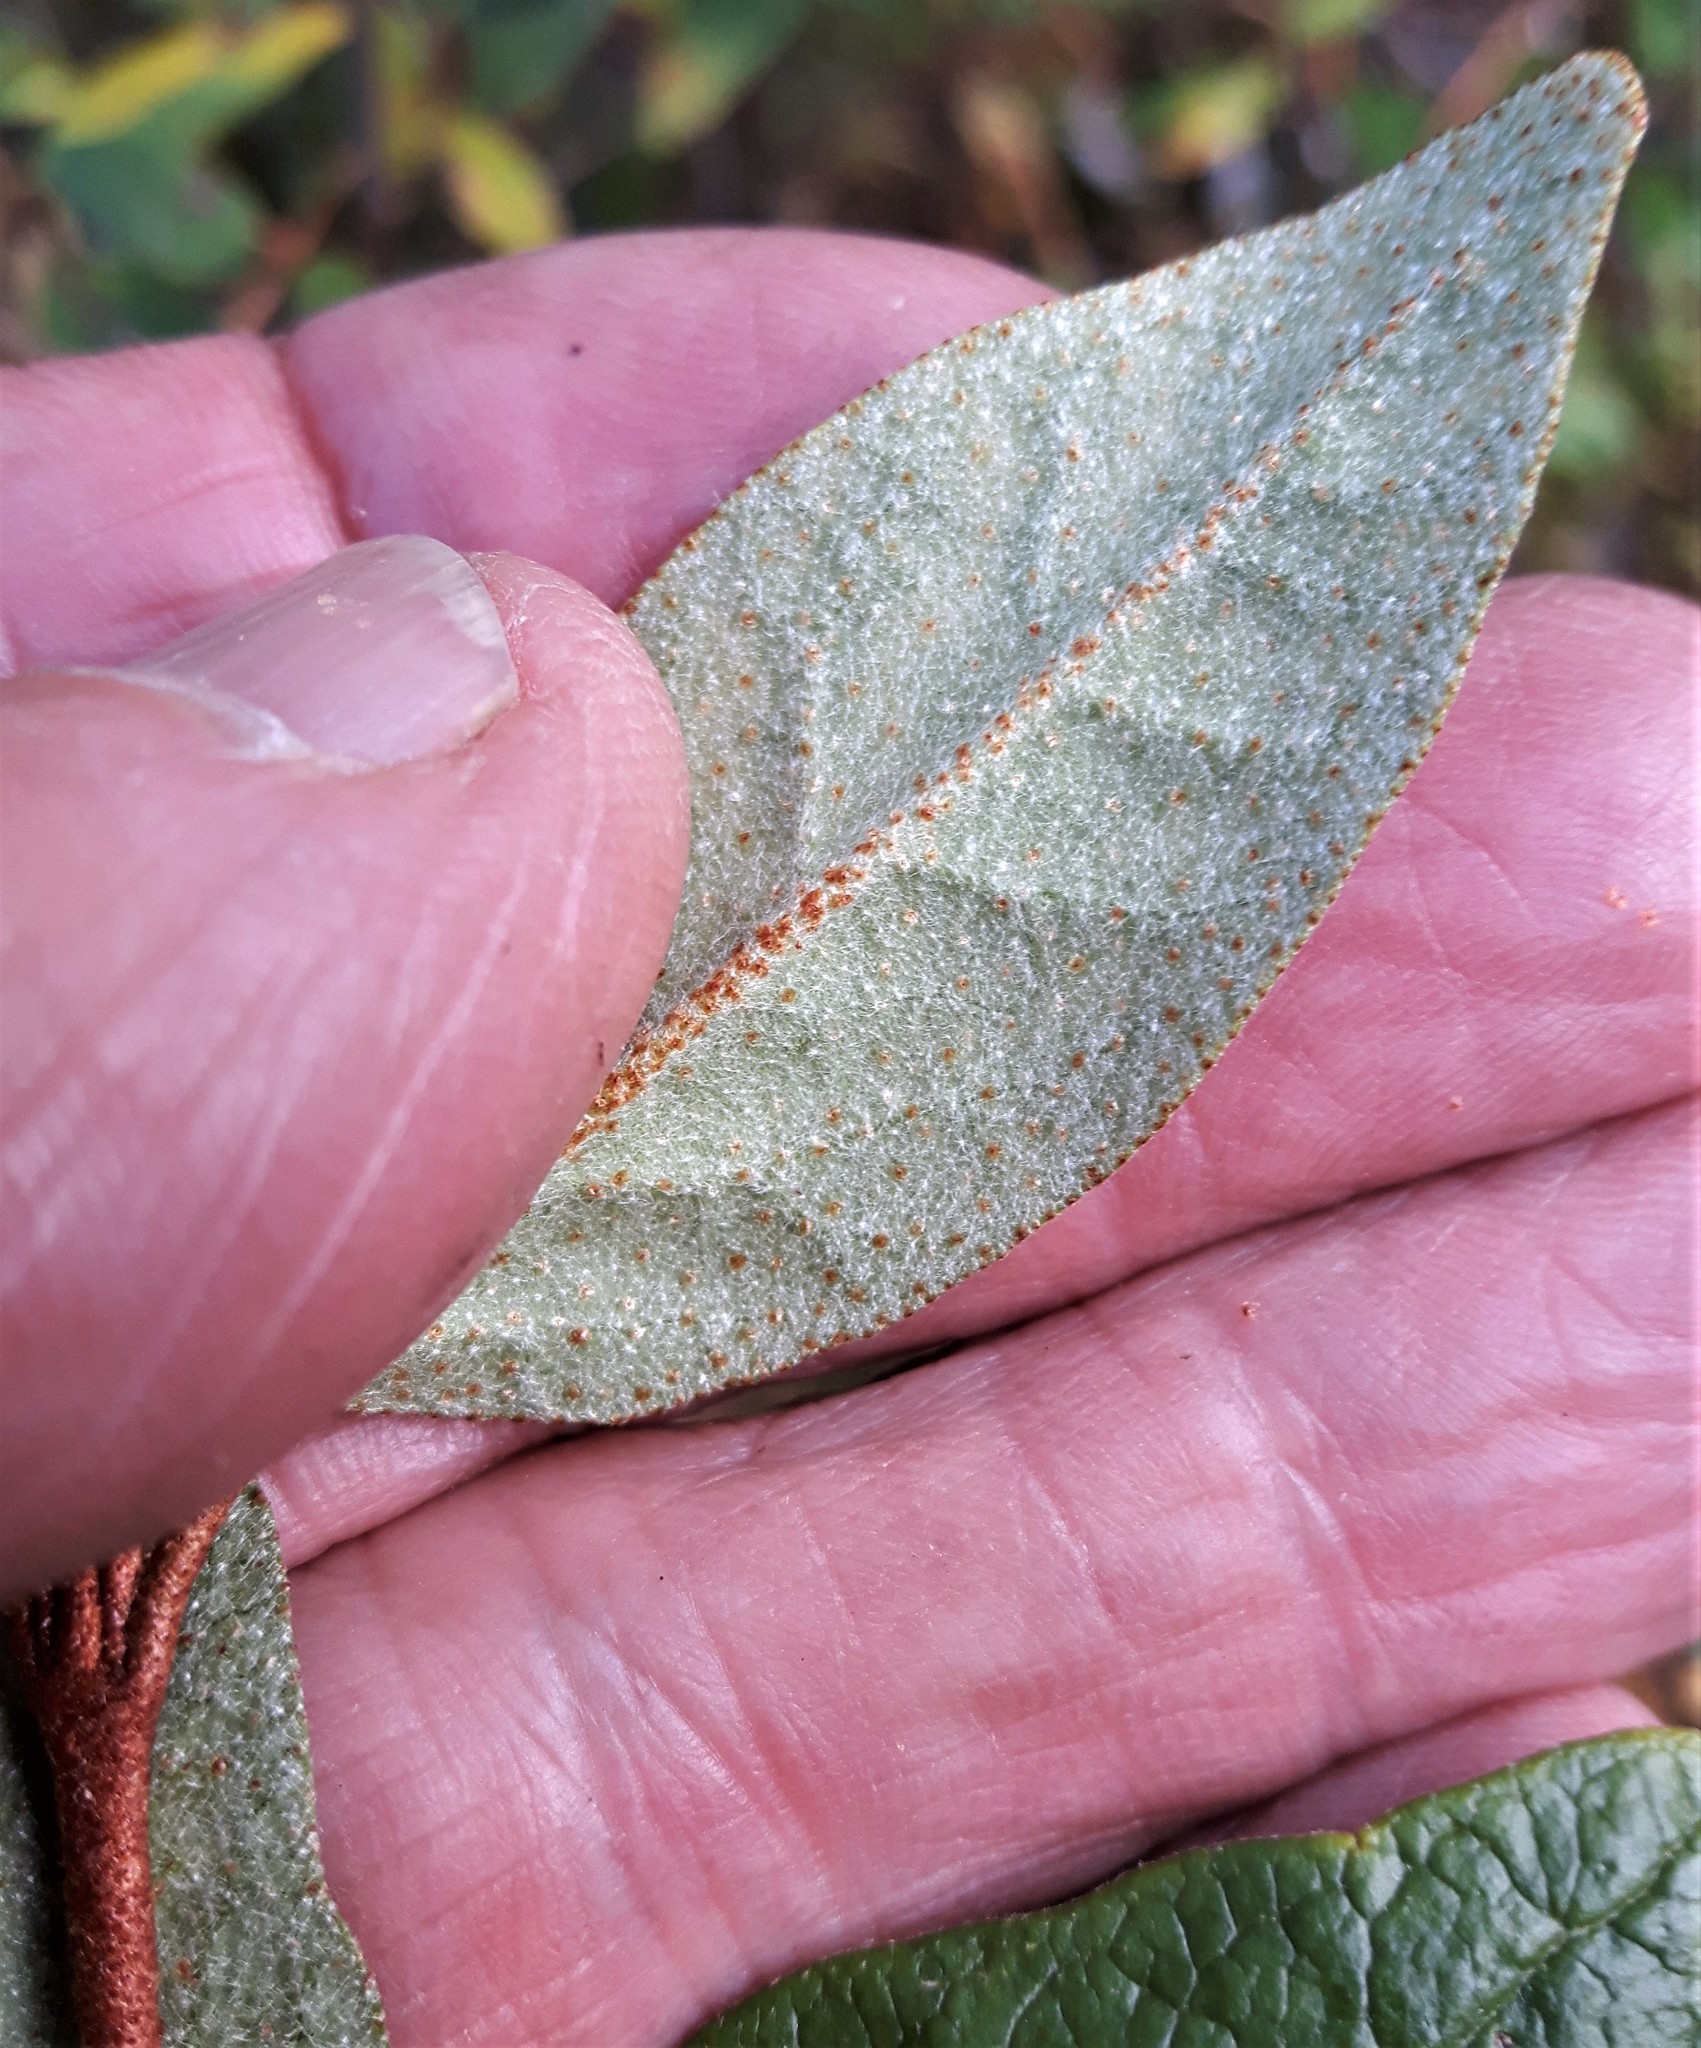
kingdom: Plantae
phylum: Tracheophyta
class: Magnoliopsida
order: Rosales
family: Elaeagnaceae
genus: Shepherdia
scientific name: Shepherdia canadensis
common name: Soapberry
